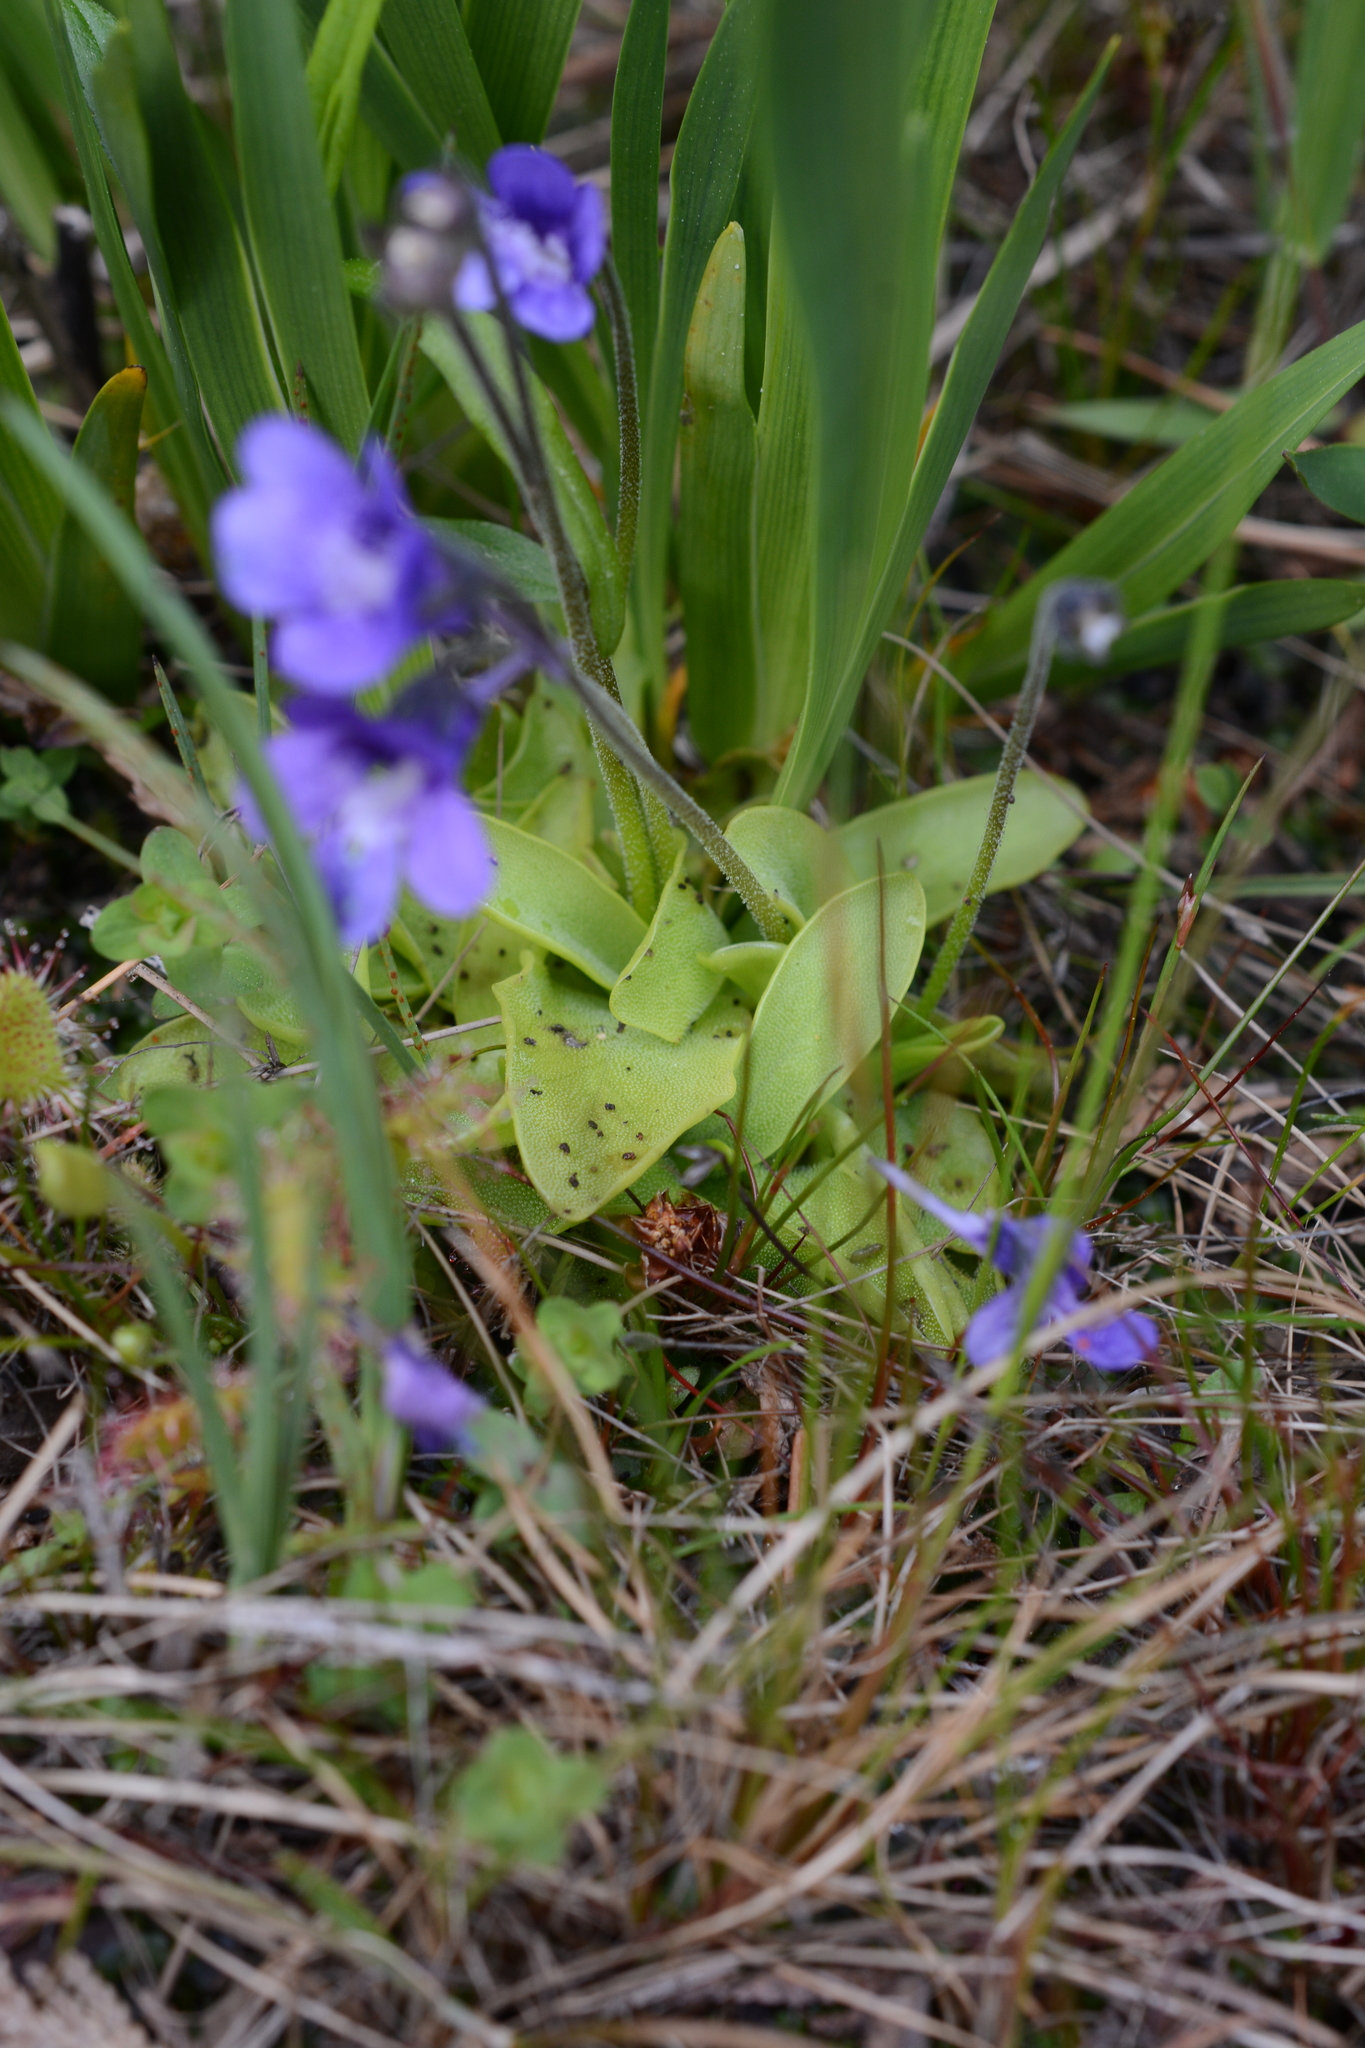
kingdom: Plantae
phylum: Tracheophyta
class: Magnoliopsida
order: Lamiales
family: Lentibulariaceae
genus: Pinguicula
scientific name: Pinguicula vulgaris
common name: Common butterwort
